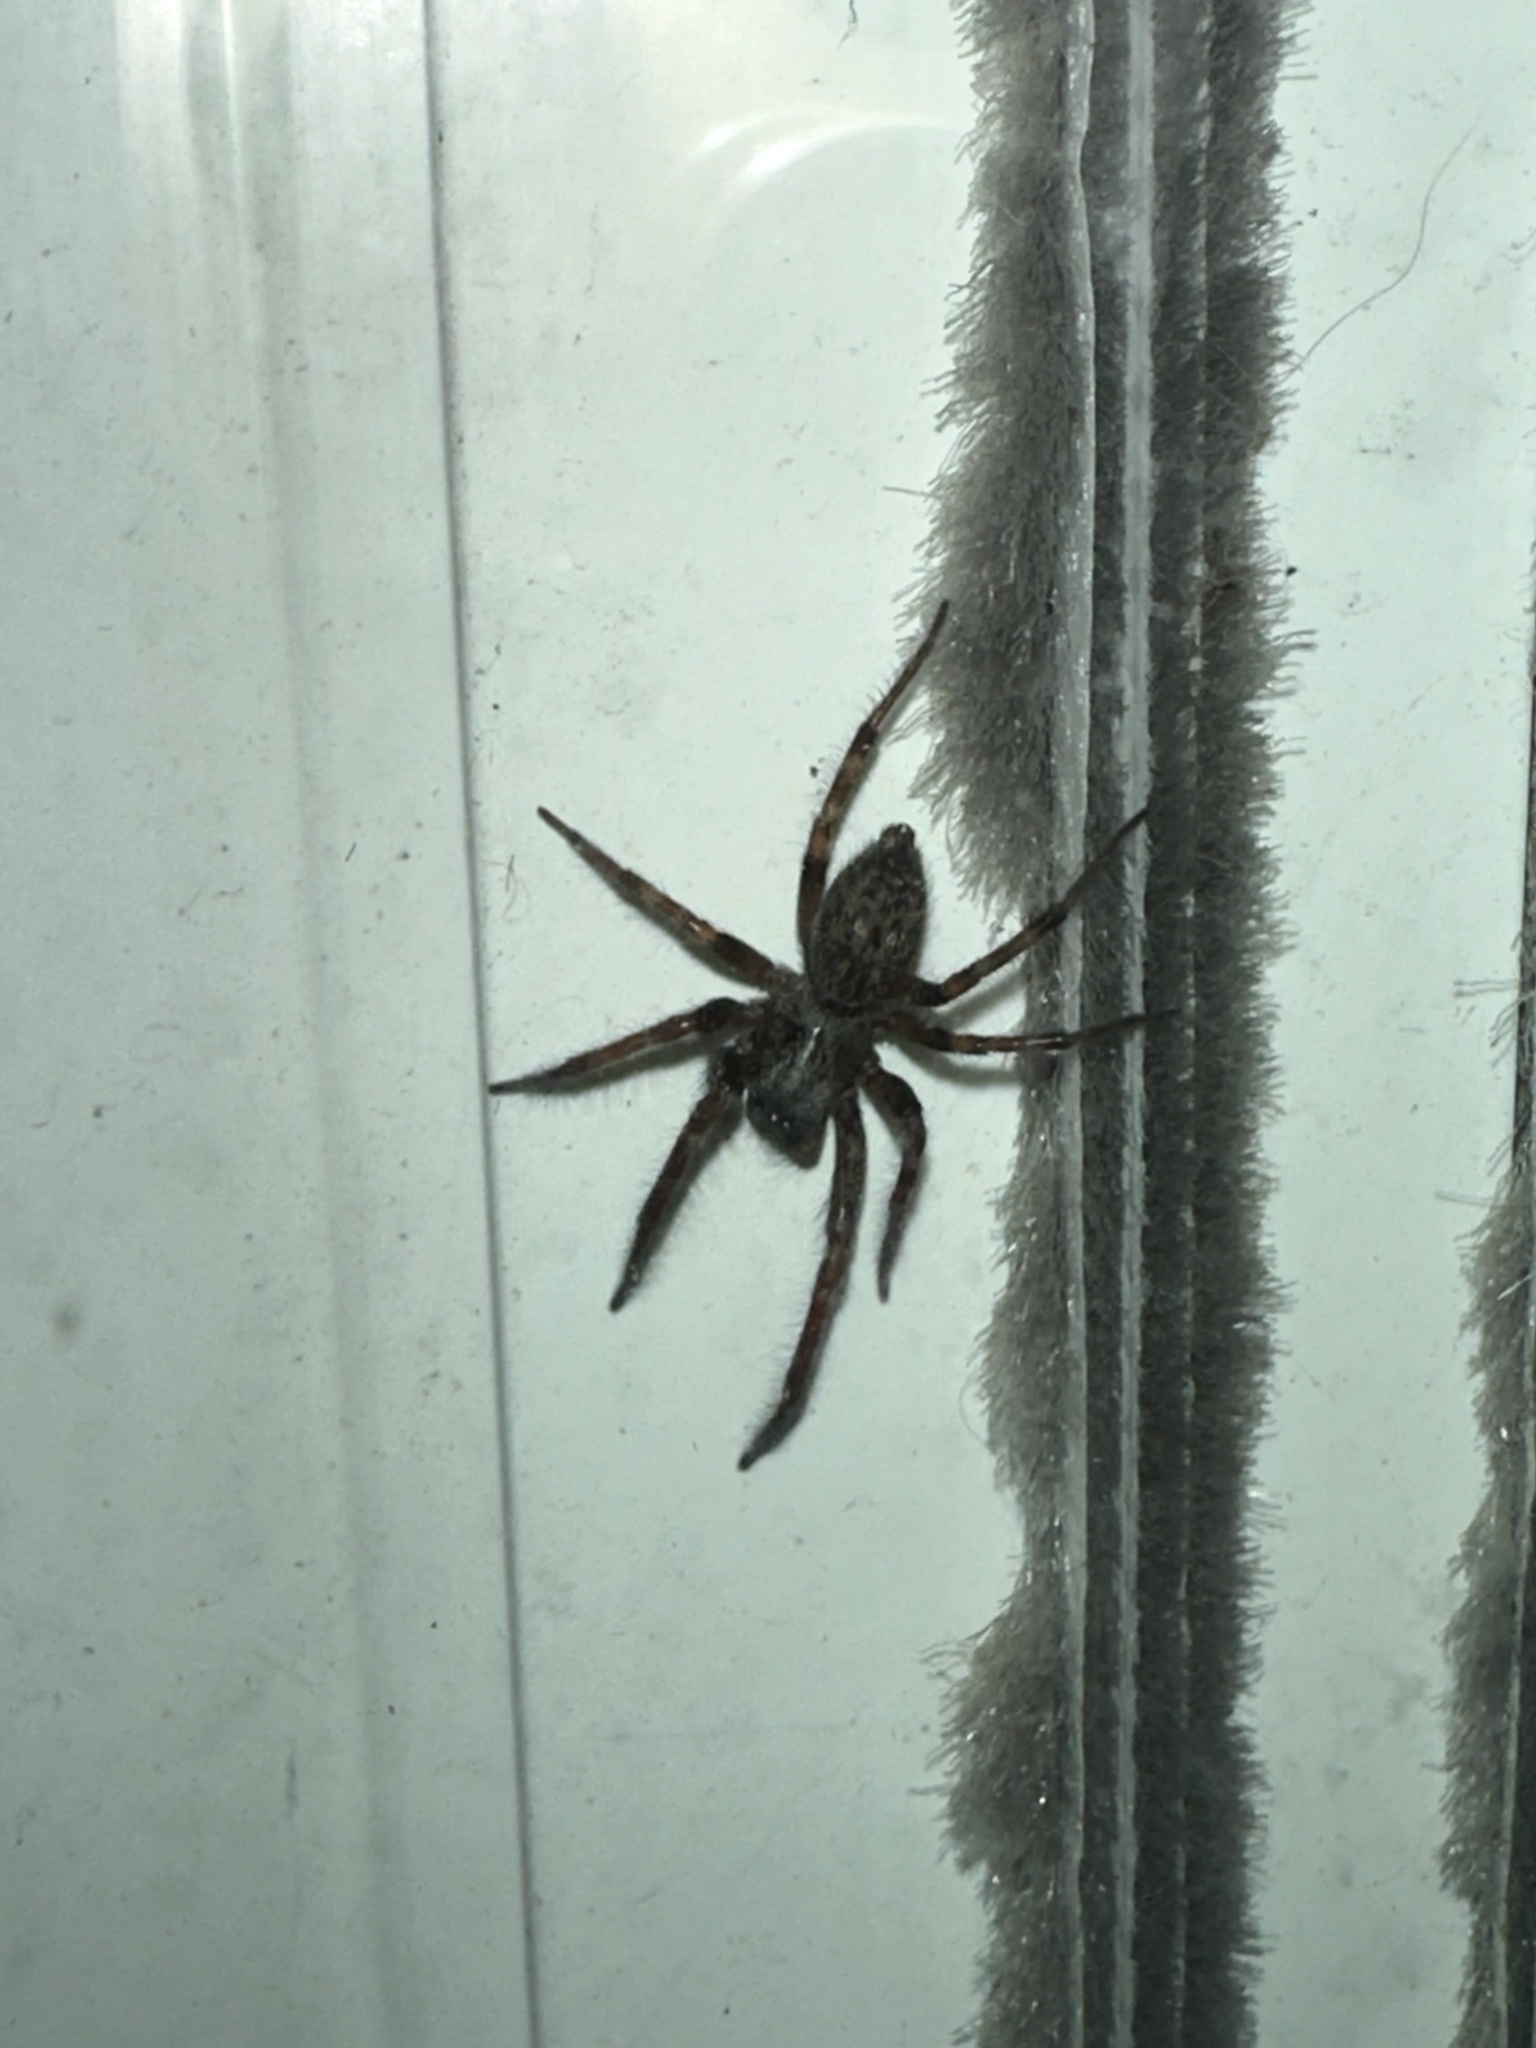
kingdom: Animalia
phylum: Arthropoda
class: Arachnida
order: Araneae
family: Desidae
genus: Badumna
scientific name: Badumna longinqua
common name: Gray house spider
